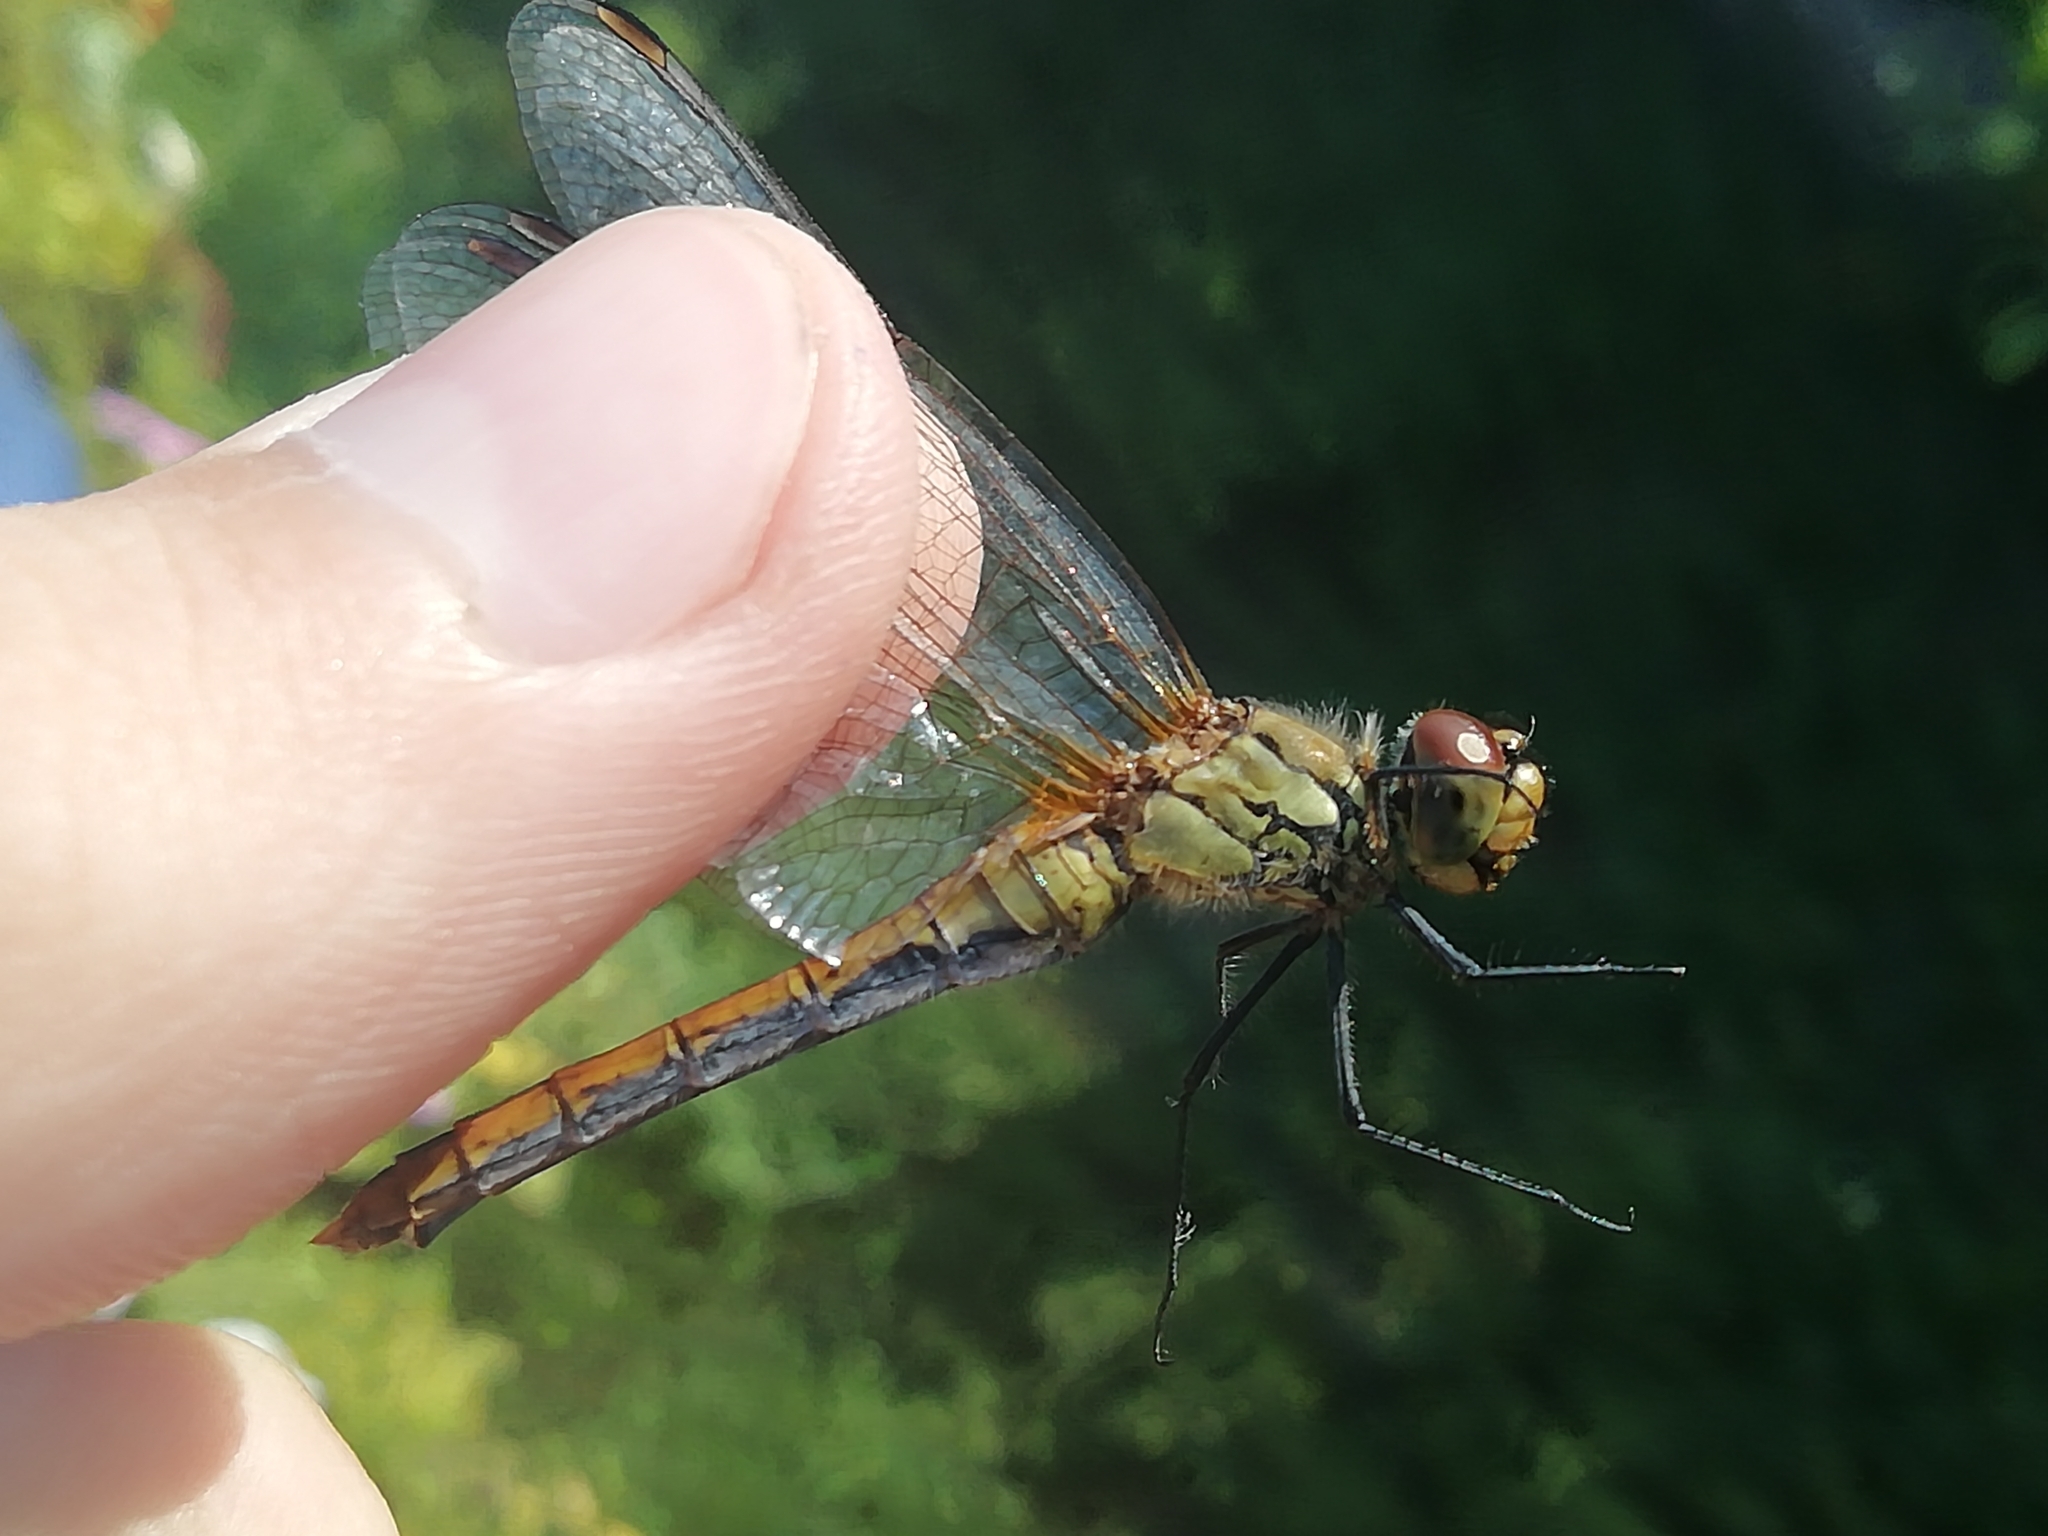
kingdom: Animalia
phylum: Arthropoda
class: Insecta
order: Odonata
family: Libellulidae
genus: Sympetrum
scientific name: Sympetrum sanguineum
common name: Ruddy darter
